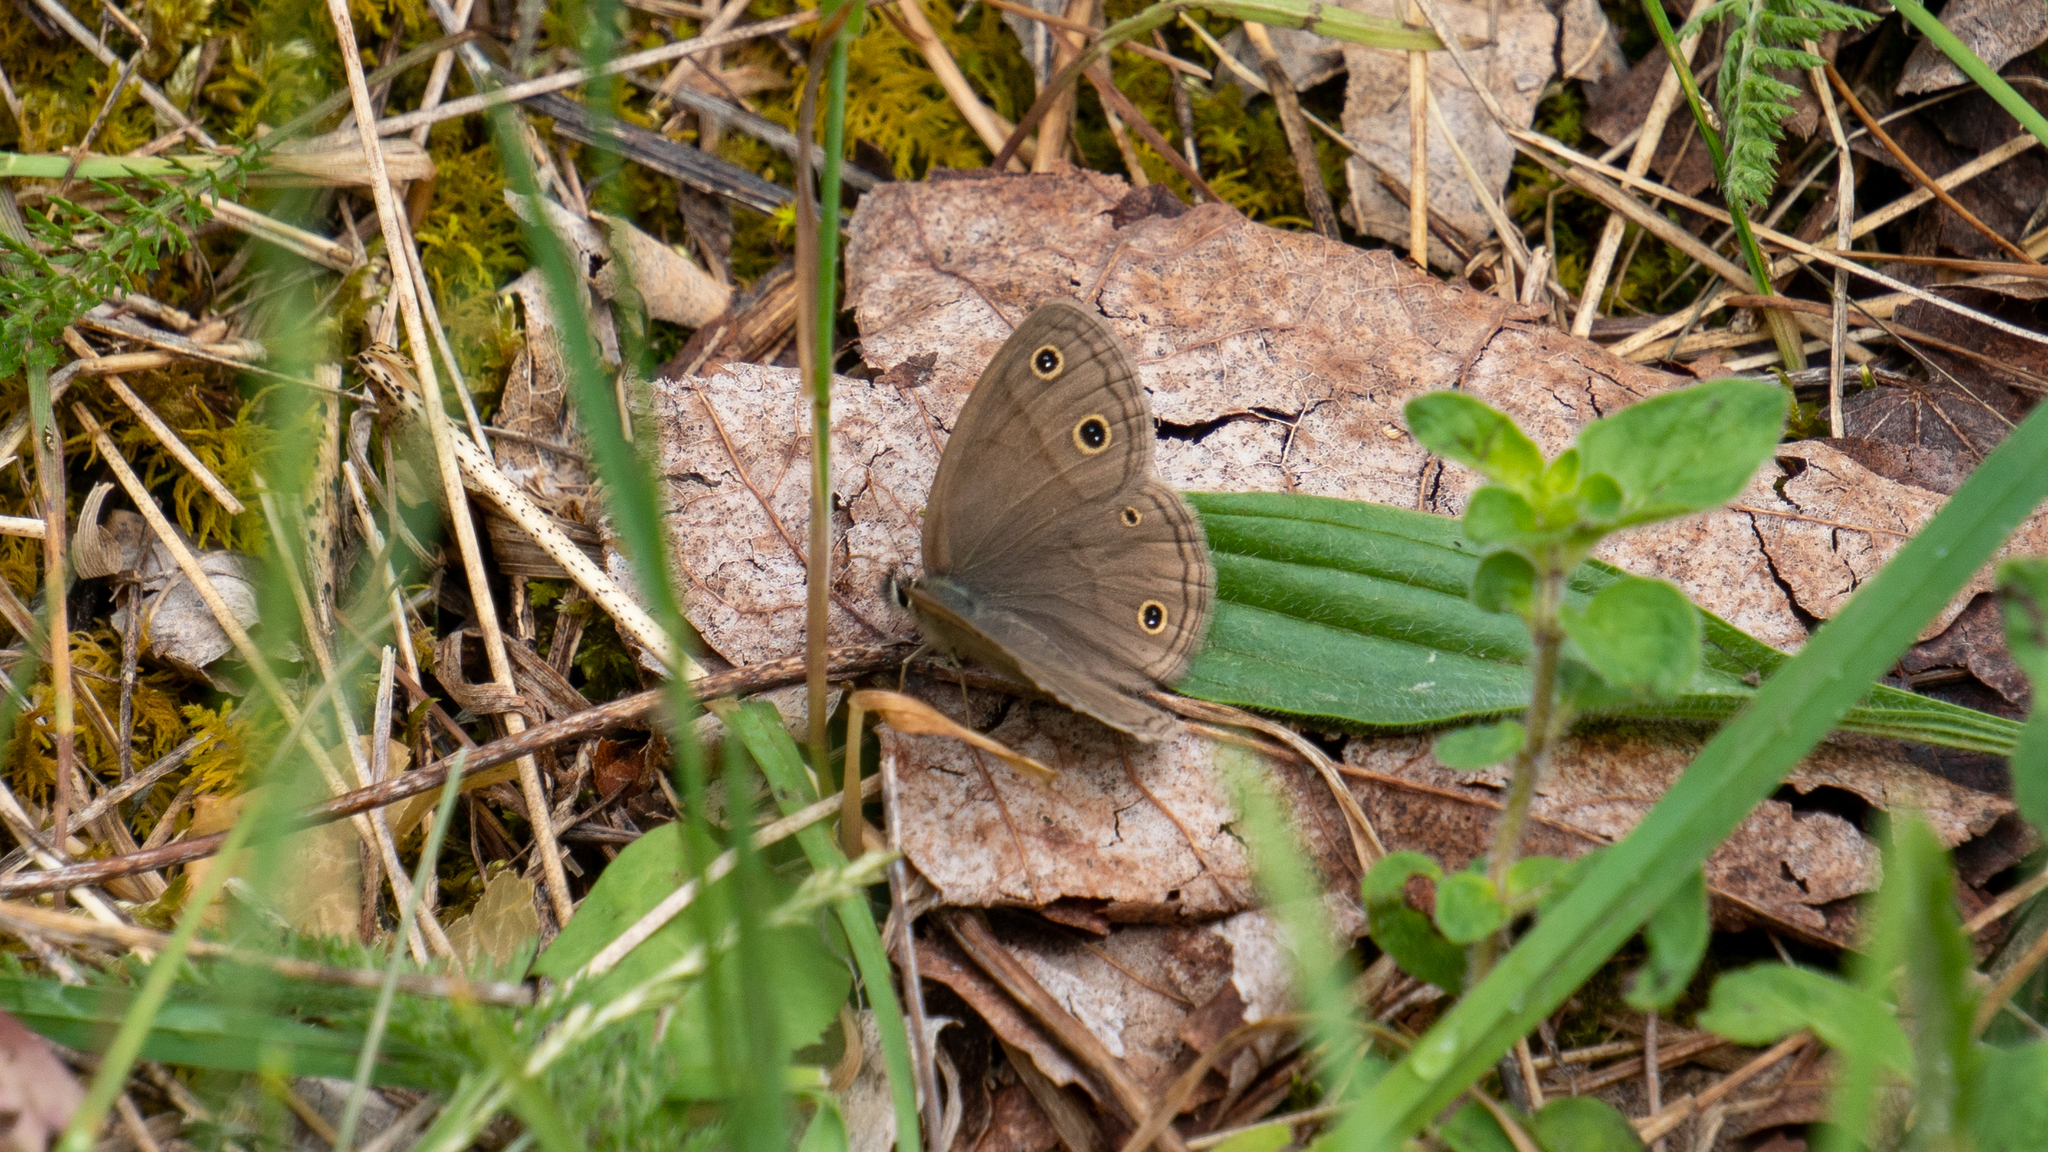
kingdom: Animalia
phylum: Arthropoda
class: Insecta
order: Lepidoptera
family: Nymphalidae
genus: Euptychia
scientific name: Euptychia cymela
